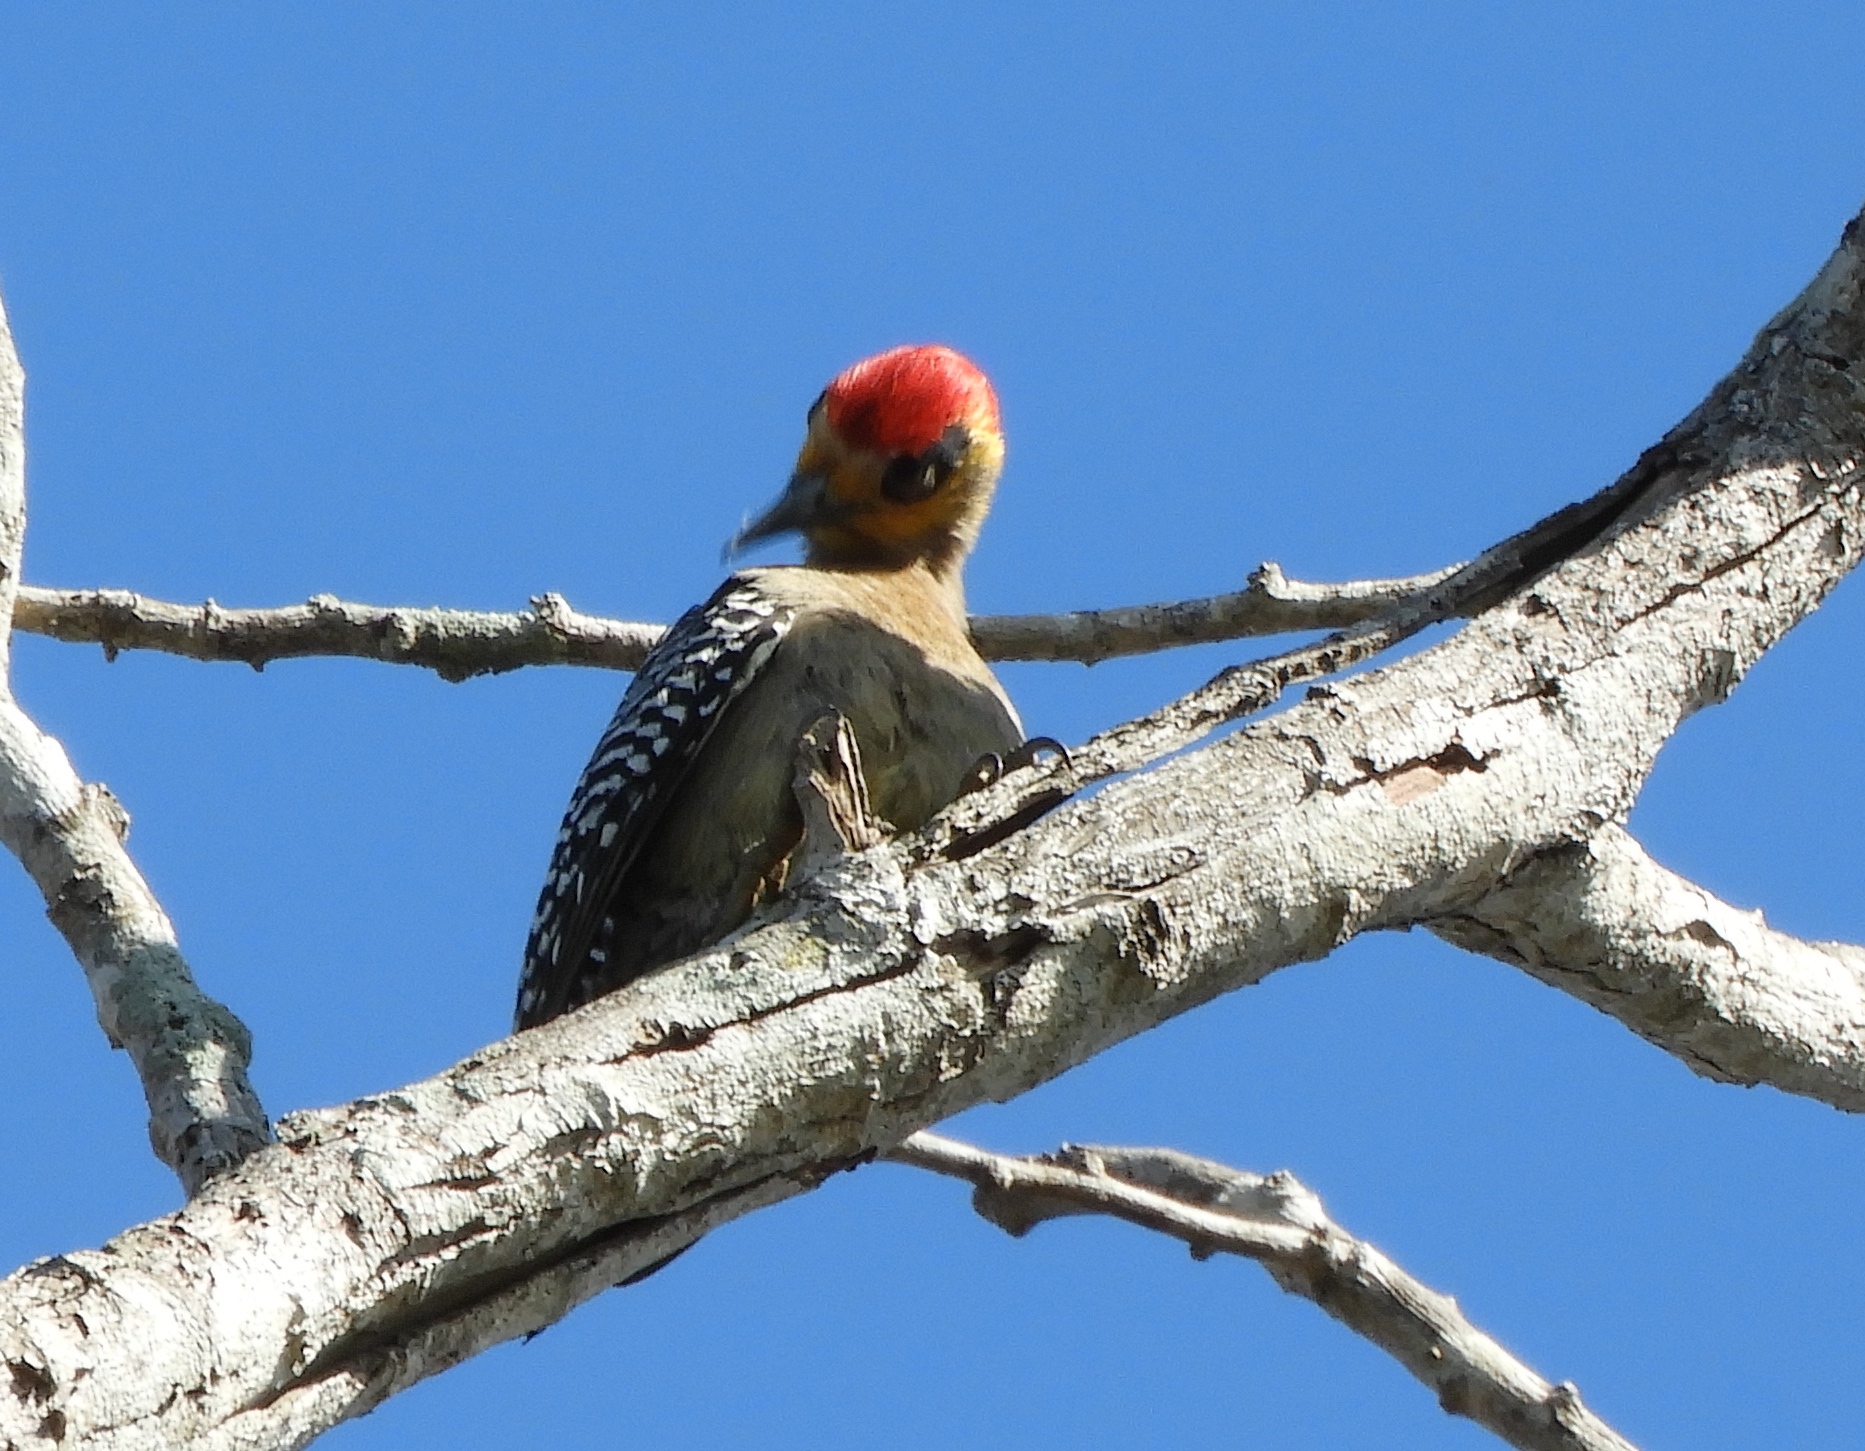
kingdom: Animalia
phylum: Chordata
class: Aves
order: Piciformes
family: Picidae
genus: Melanerpes
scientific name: Melanerpes chrysogenys
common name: Golden-cheeked woodpecker
